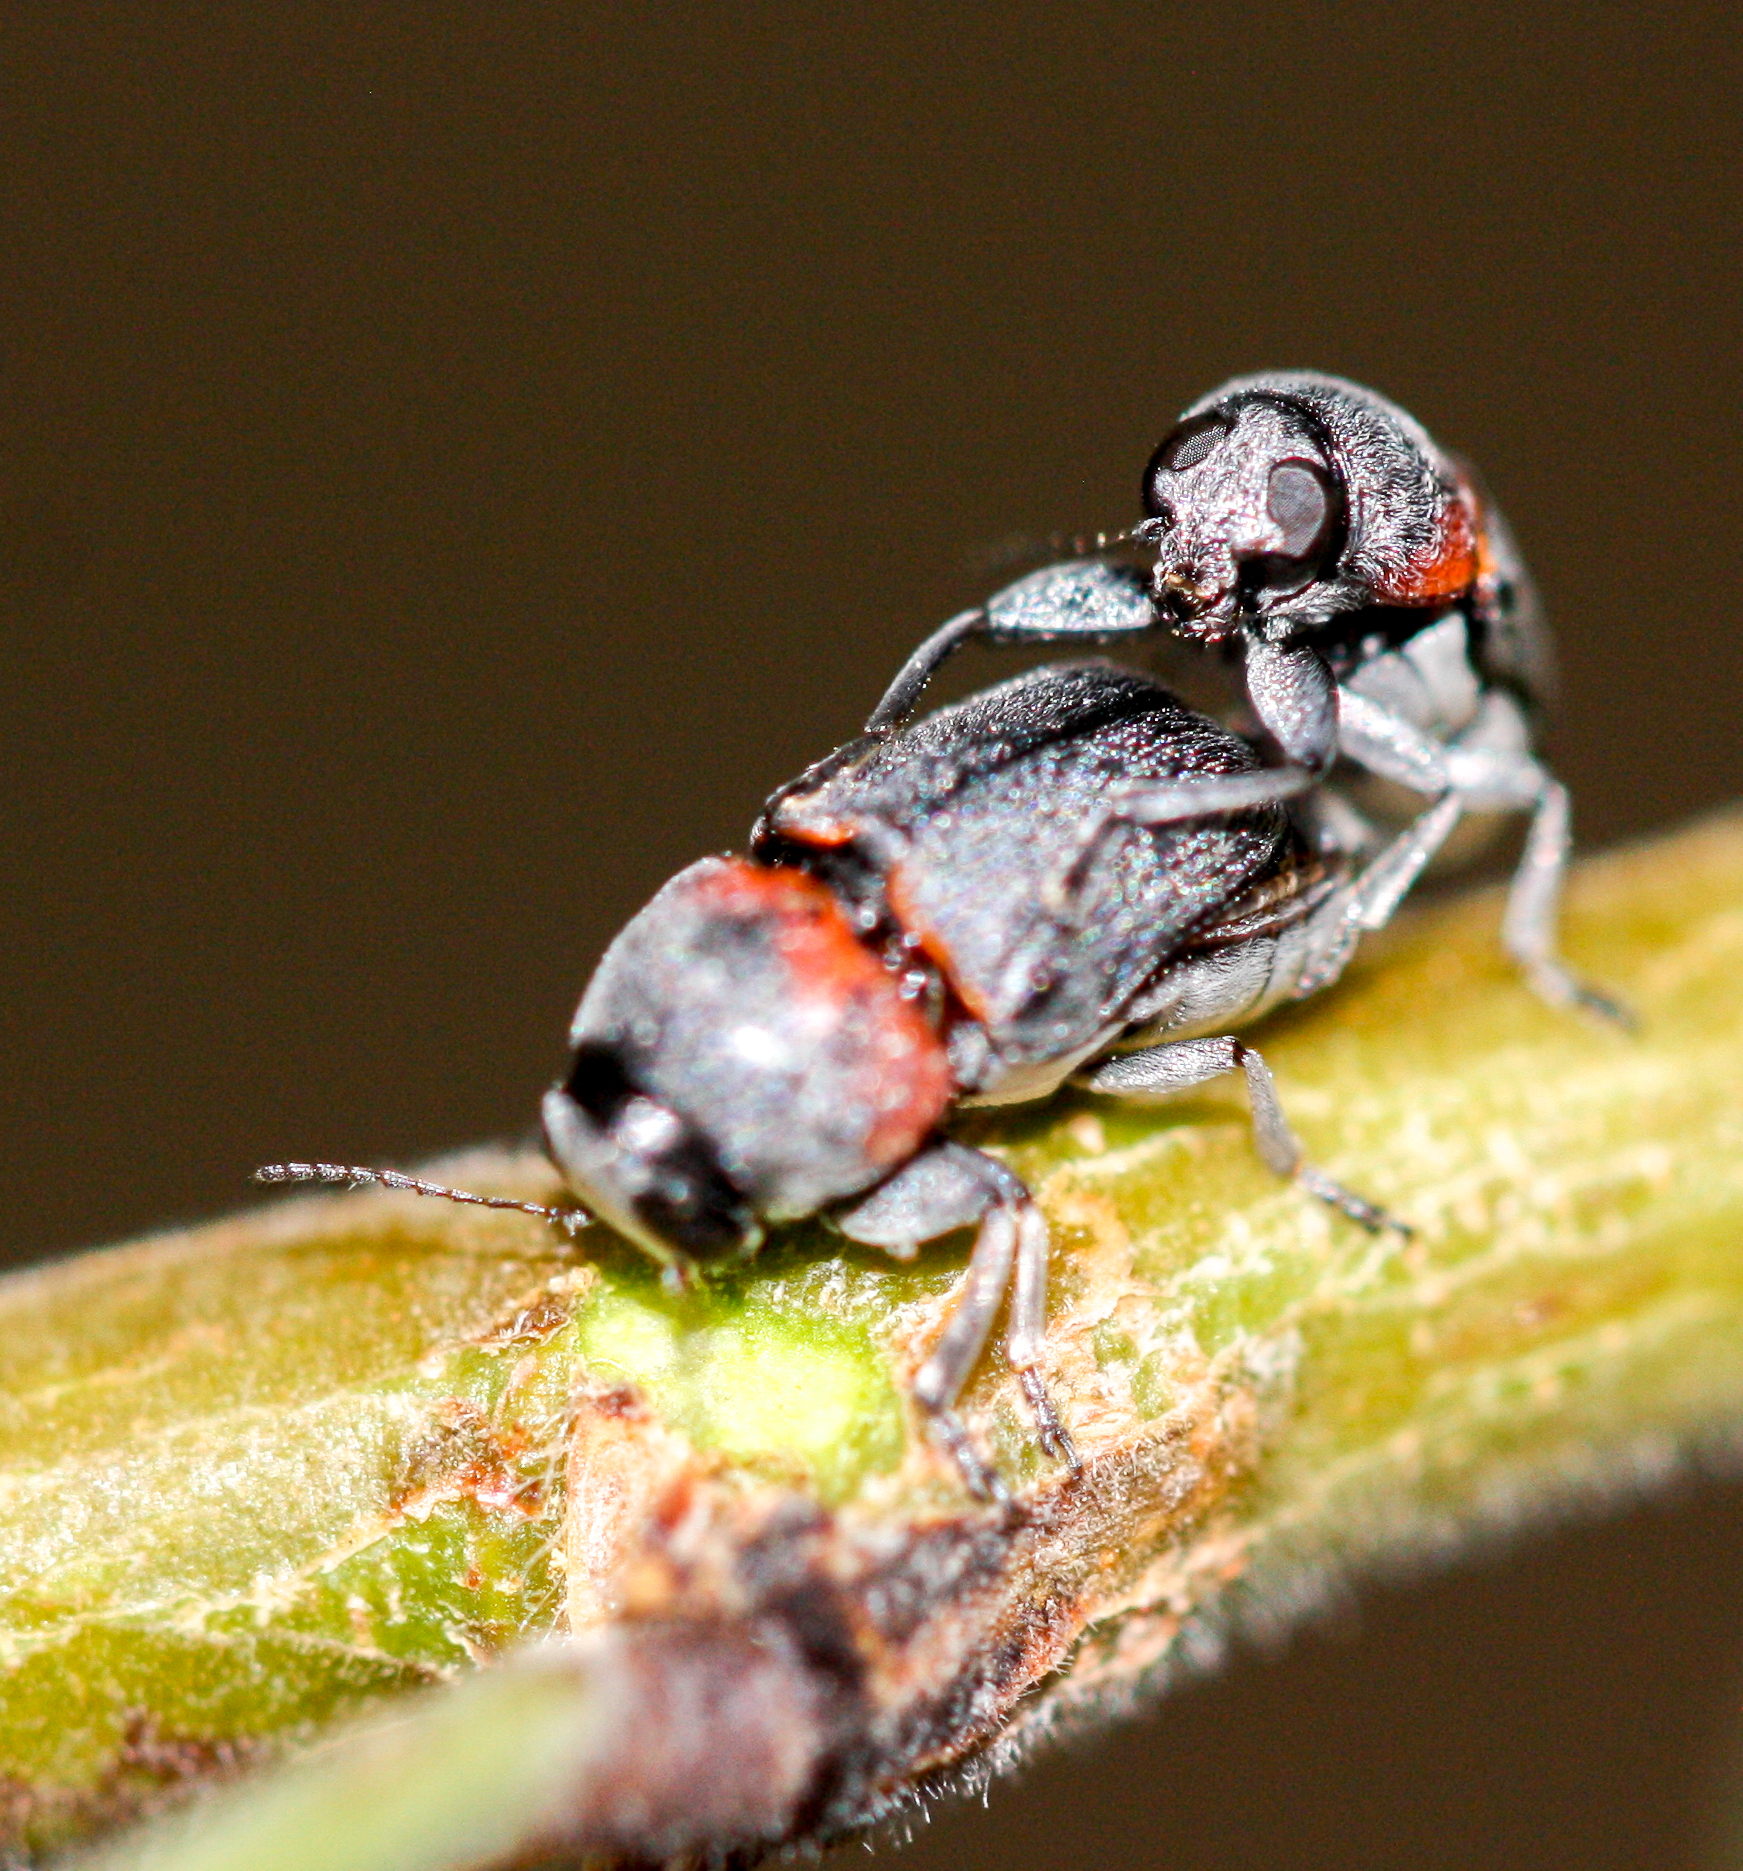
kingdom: Animalia
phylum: Arthropoda
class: Insecta
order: Coleoptera
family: Chrysomelidae
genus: Pachybrachis
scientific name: Pachybrachis thoracicus
